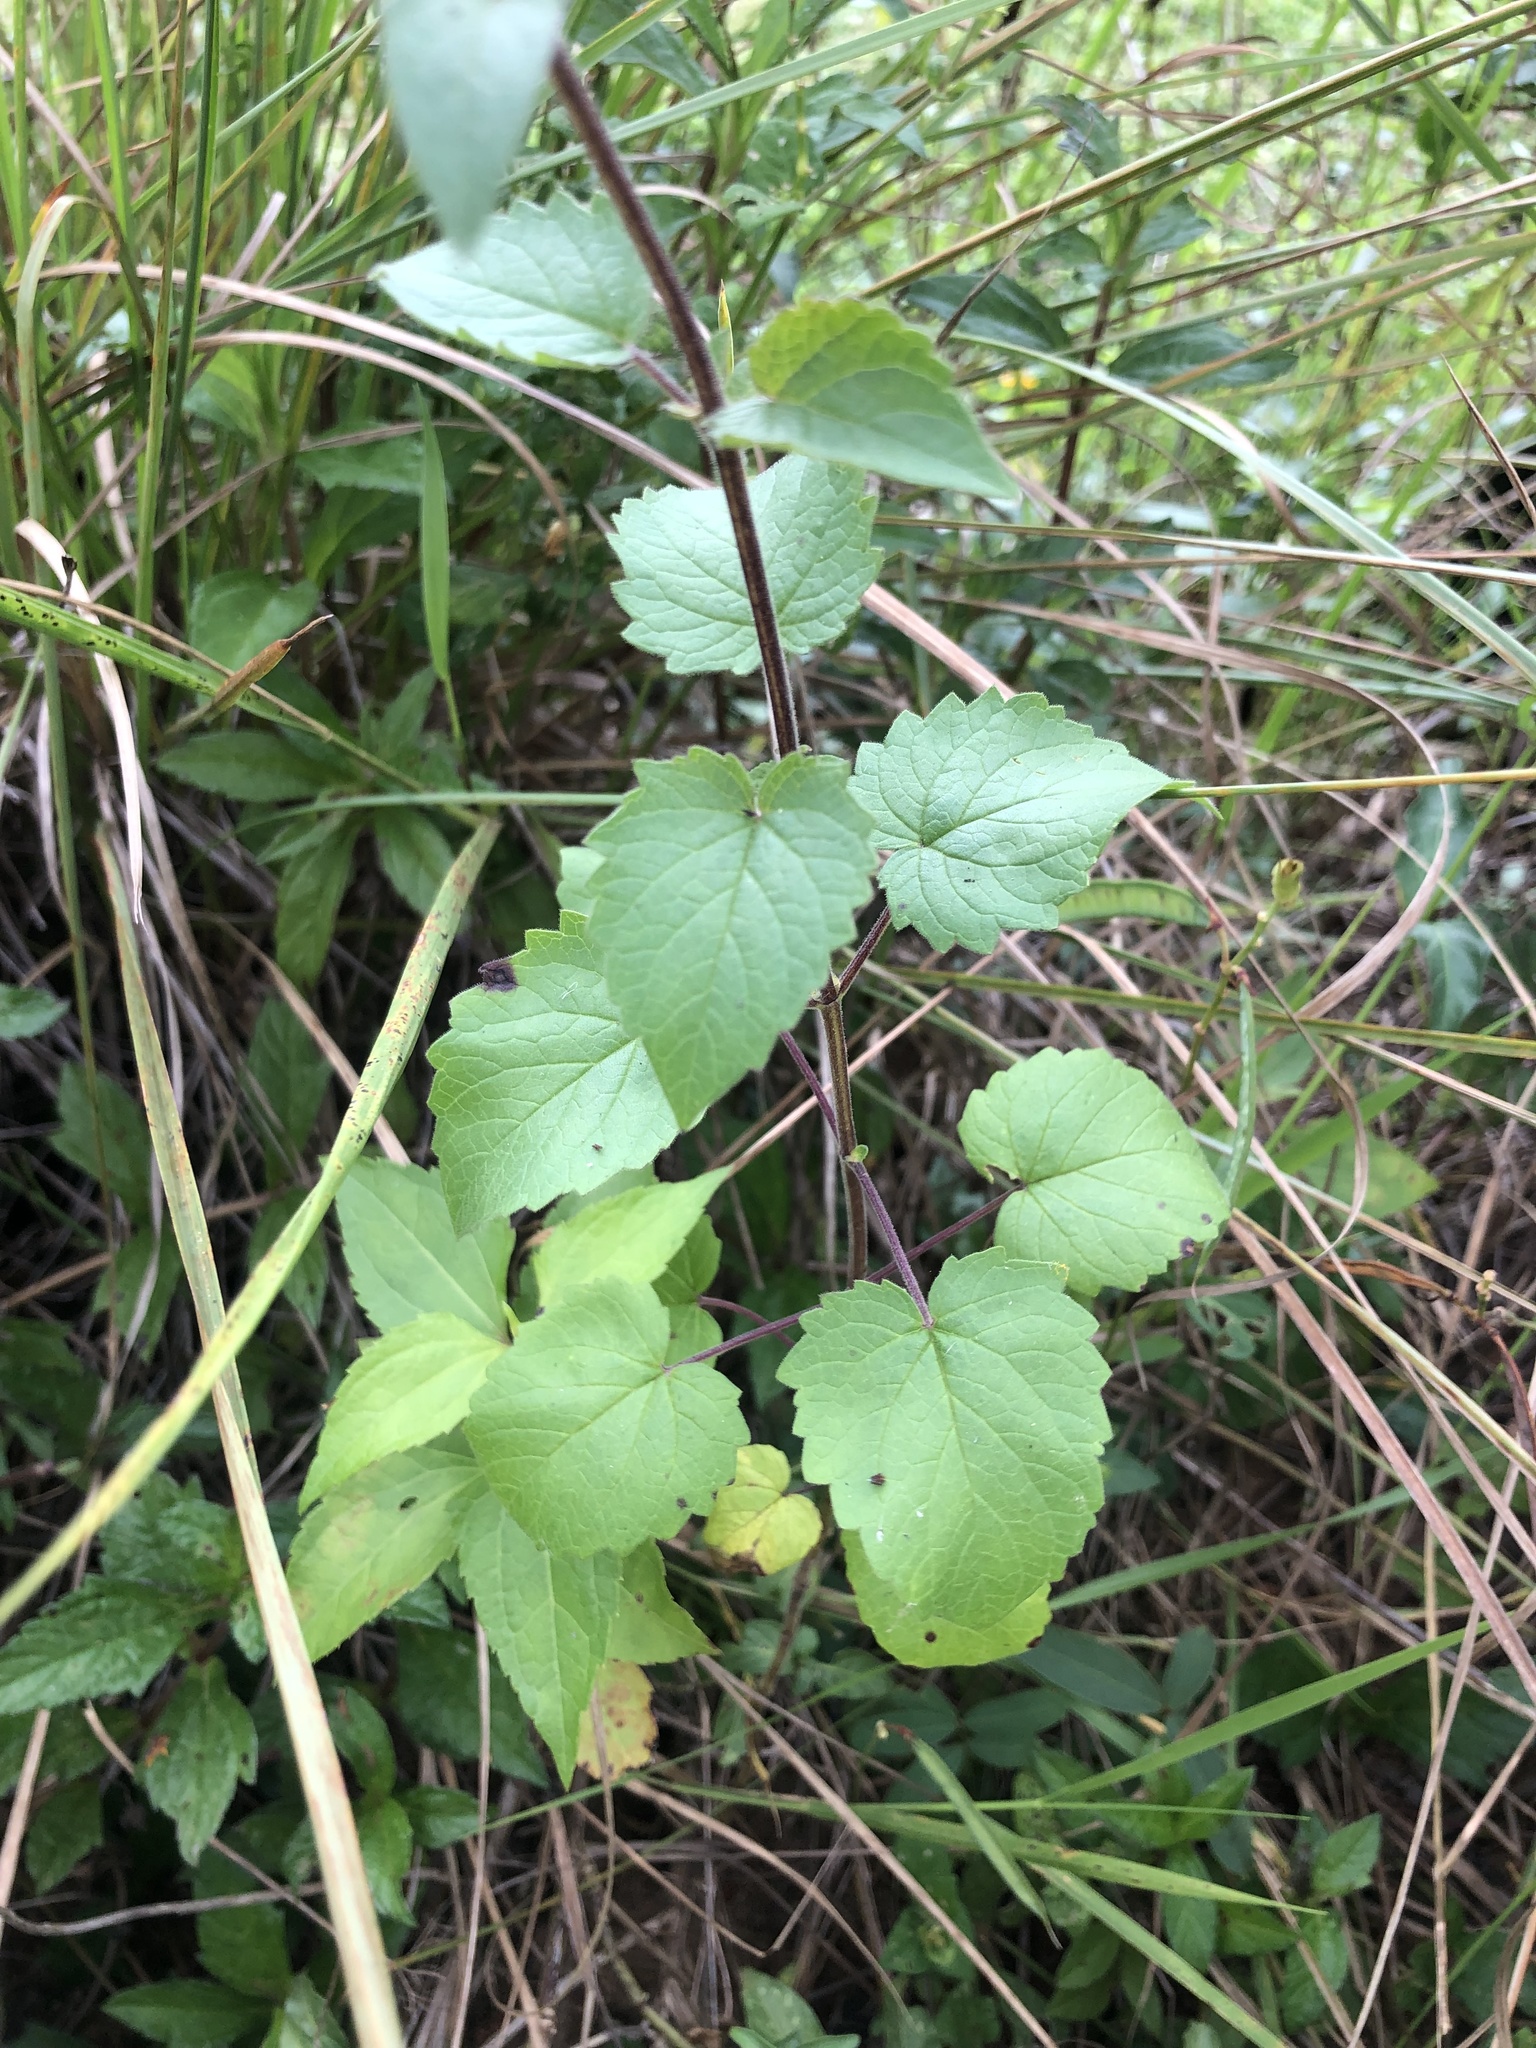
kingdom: Plantae
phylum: Tracheophyta
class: Magnoliopsida
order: Lamiales
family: Pedaliaceae
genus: Sesamum
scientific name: Sesamum trilobum
